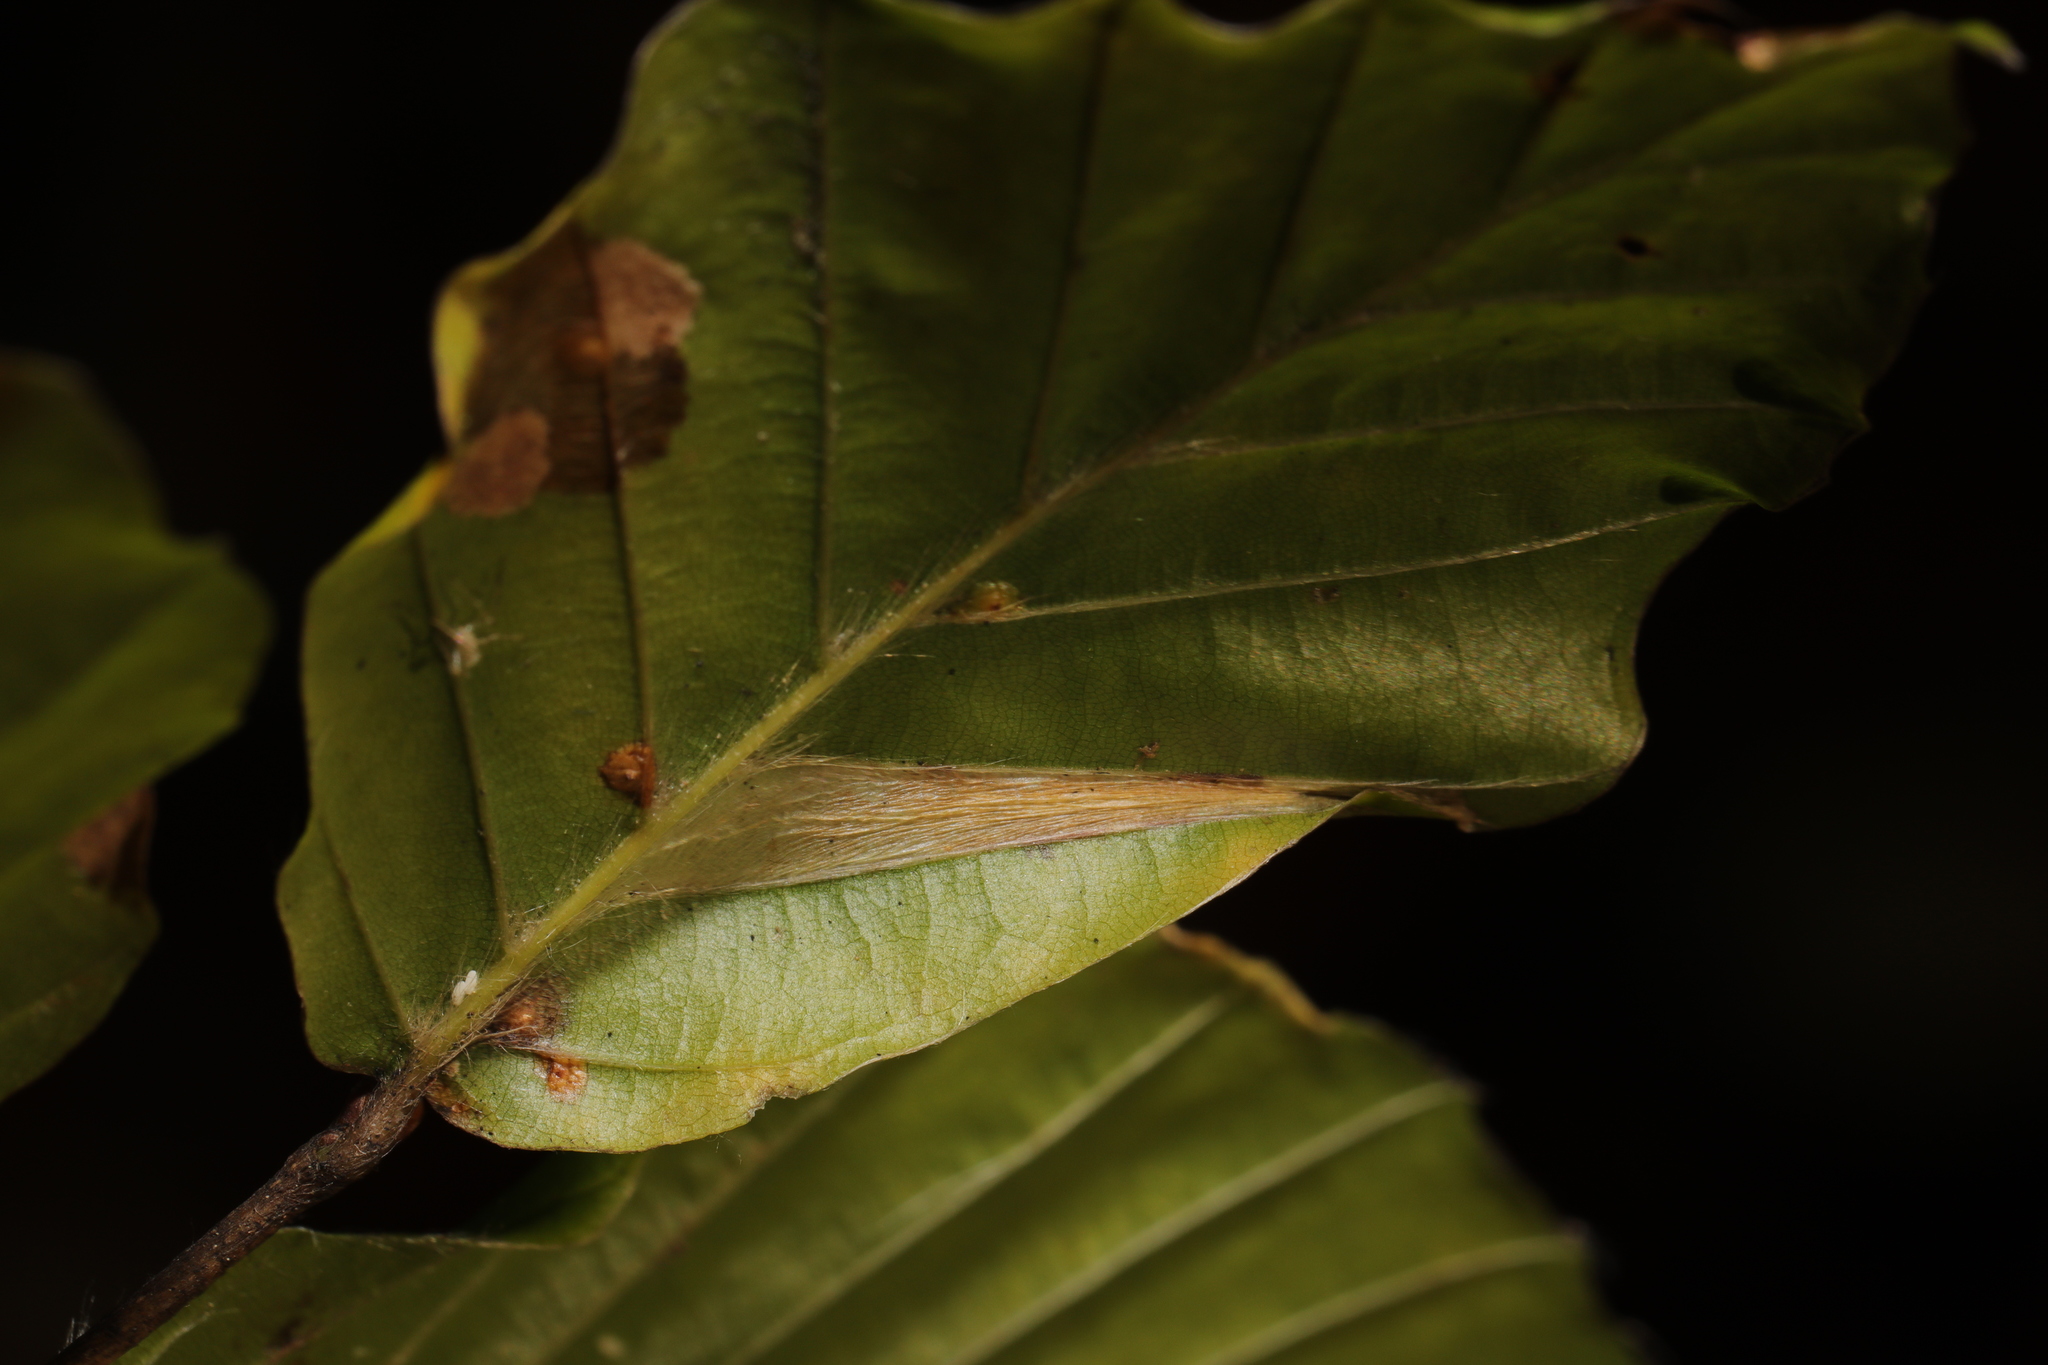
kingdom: Animalia
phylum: Arthropoda
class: Insecta
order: Lepidoptera
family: Gracillariidae
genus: Phyllonorycter
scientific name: Phyllonorycter maestingella
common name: Beech midget
